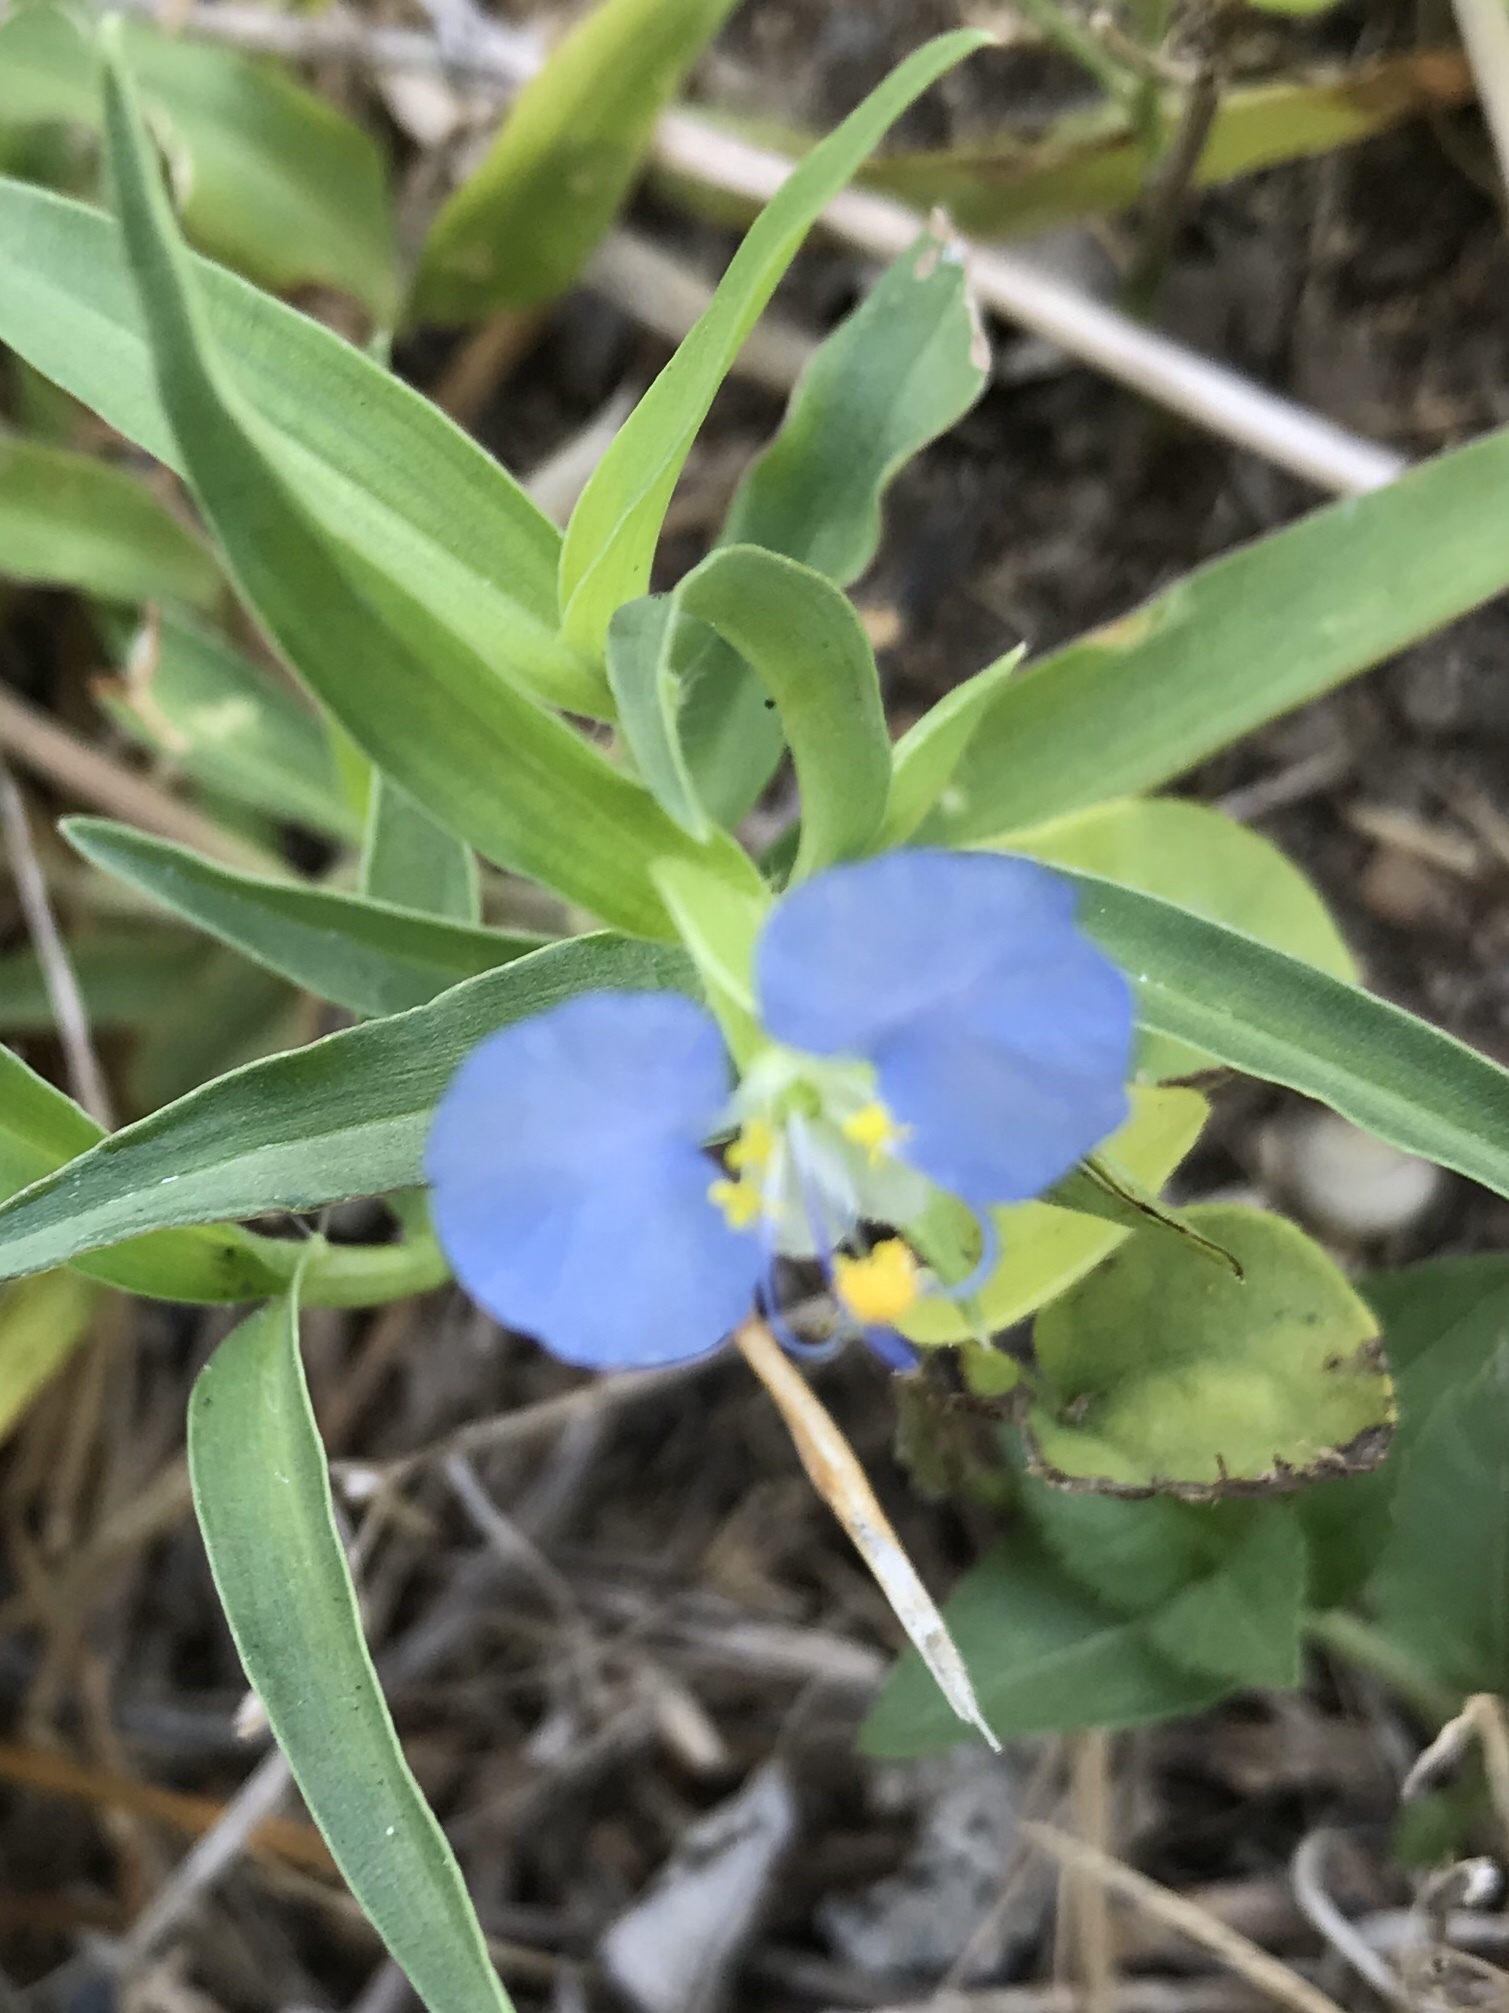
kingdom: Plantae
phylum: Tracheophyta
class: Liliopsida
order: Commelinales
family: Commelinaceae
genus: Commelina
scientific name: Commelina erecta
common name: Blousel blommetjie
